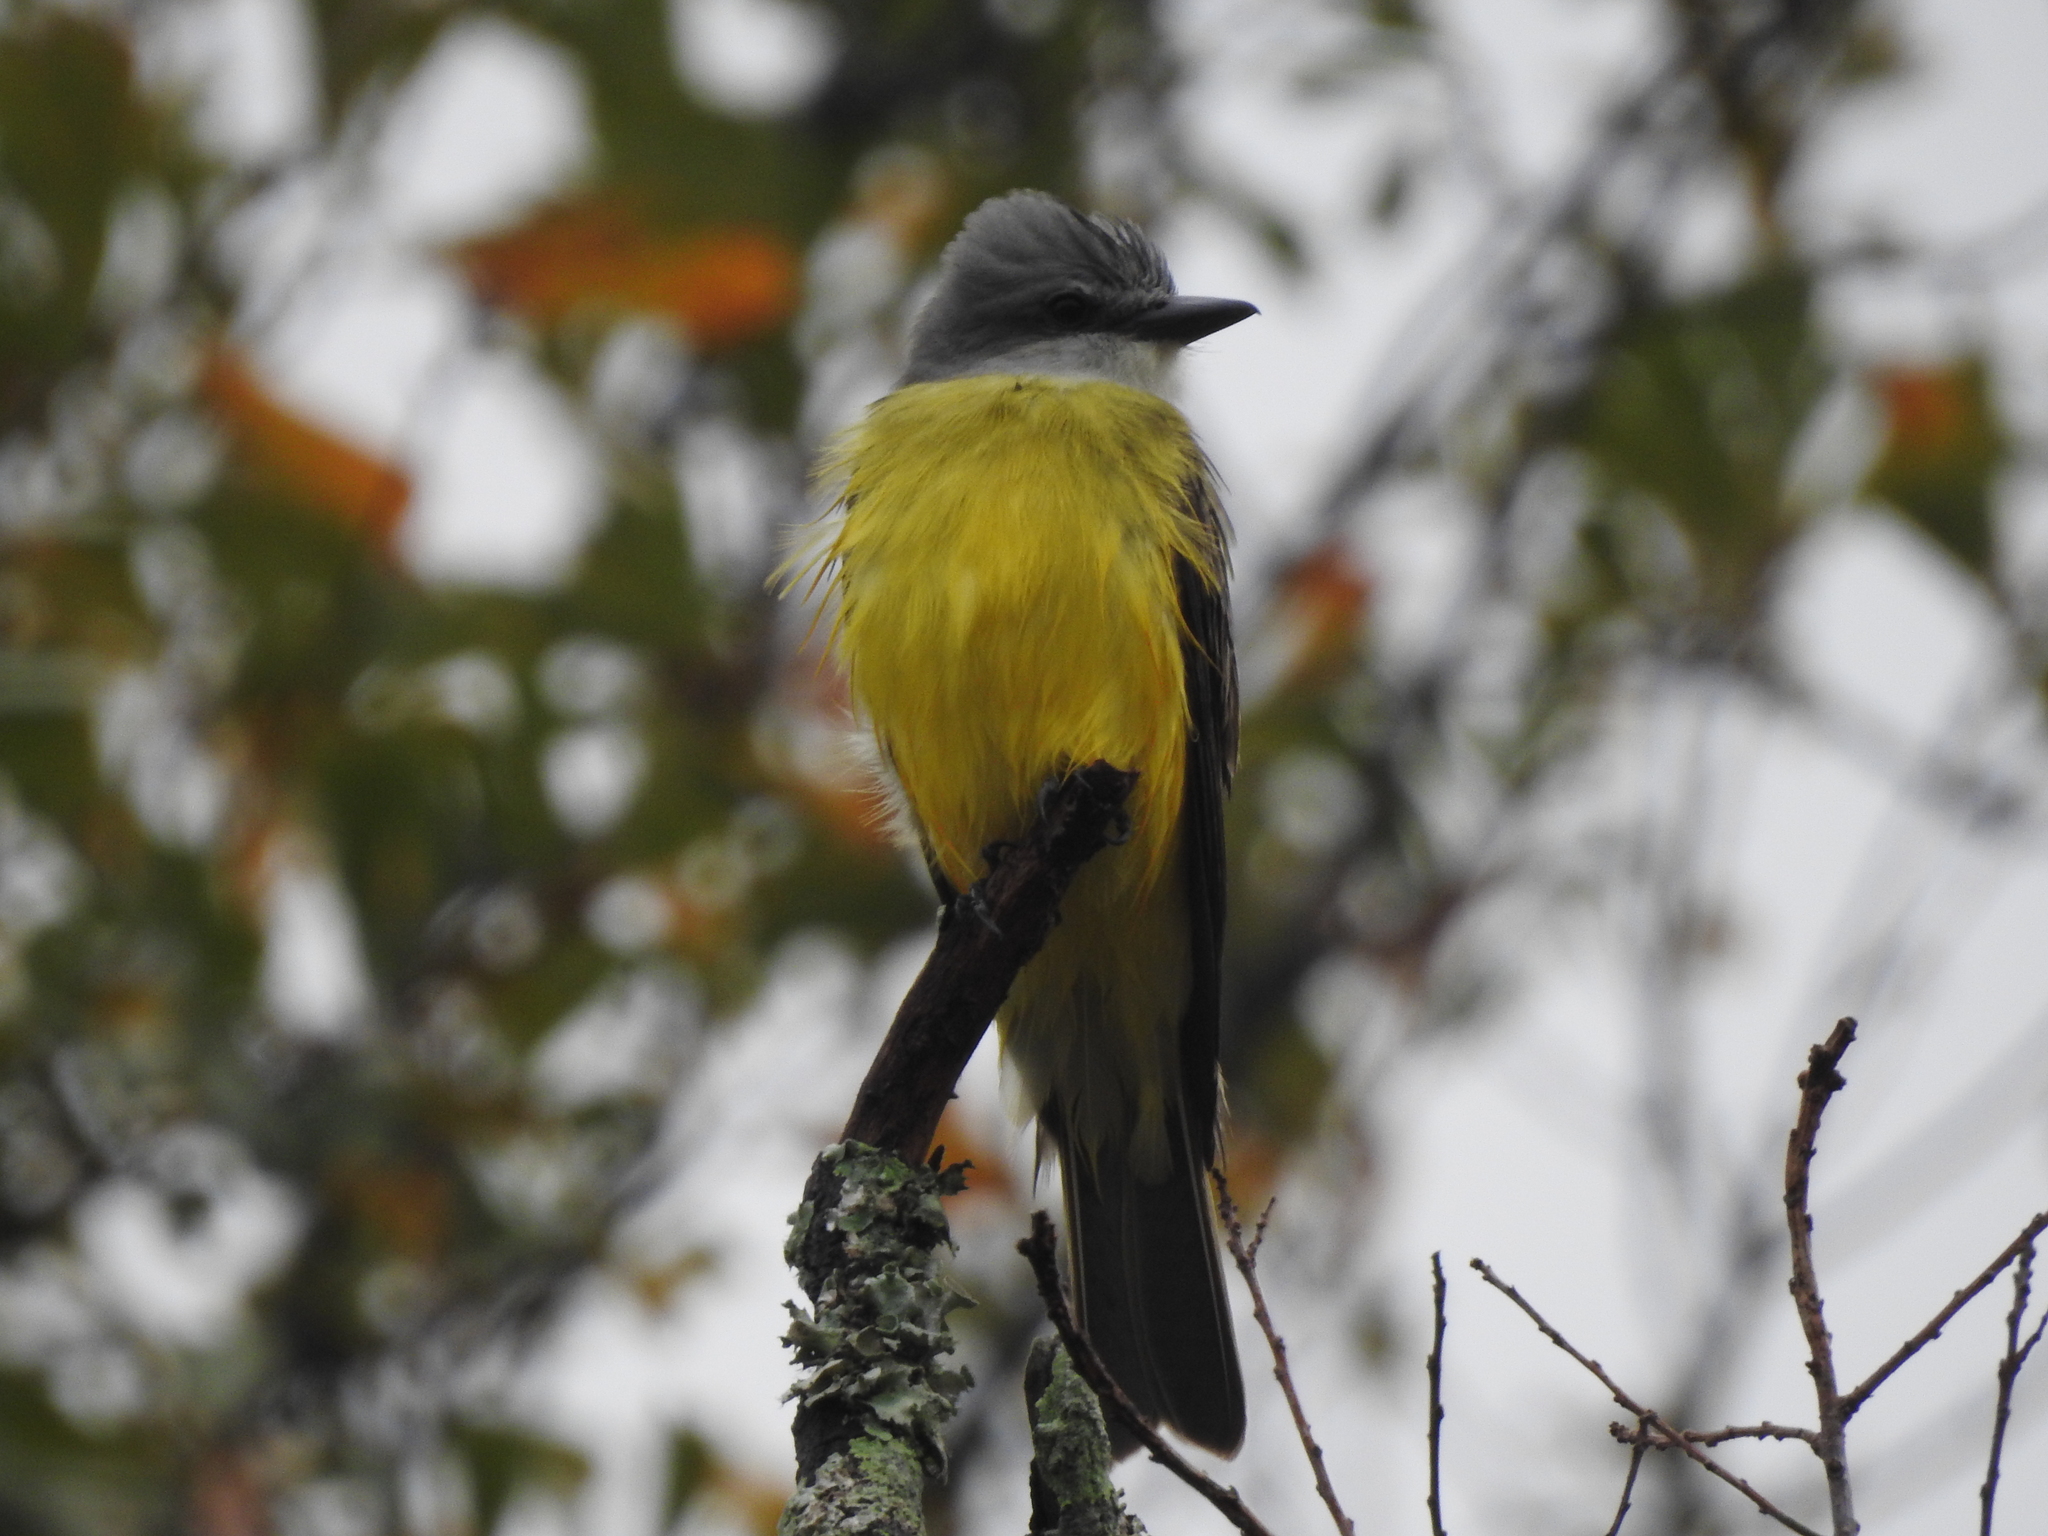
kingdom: Animalia
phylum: Chordata
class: Aves
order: Passeriformes
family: Tyrannidae
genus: Tyrannus
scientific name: Tyrannus couchii
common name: Couch's kingbird
